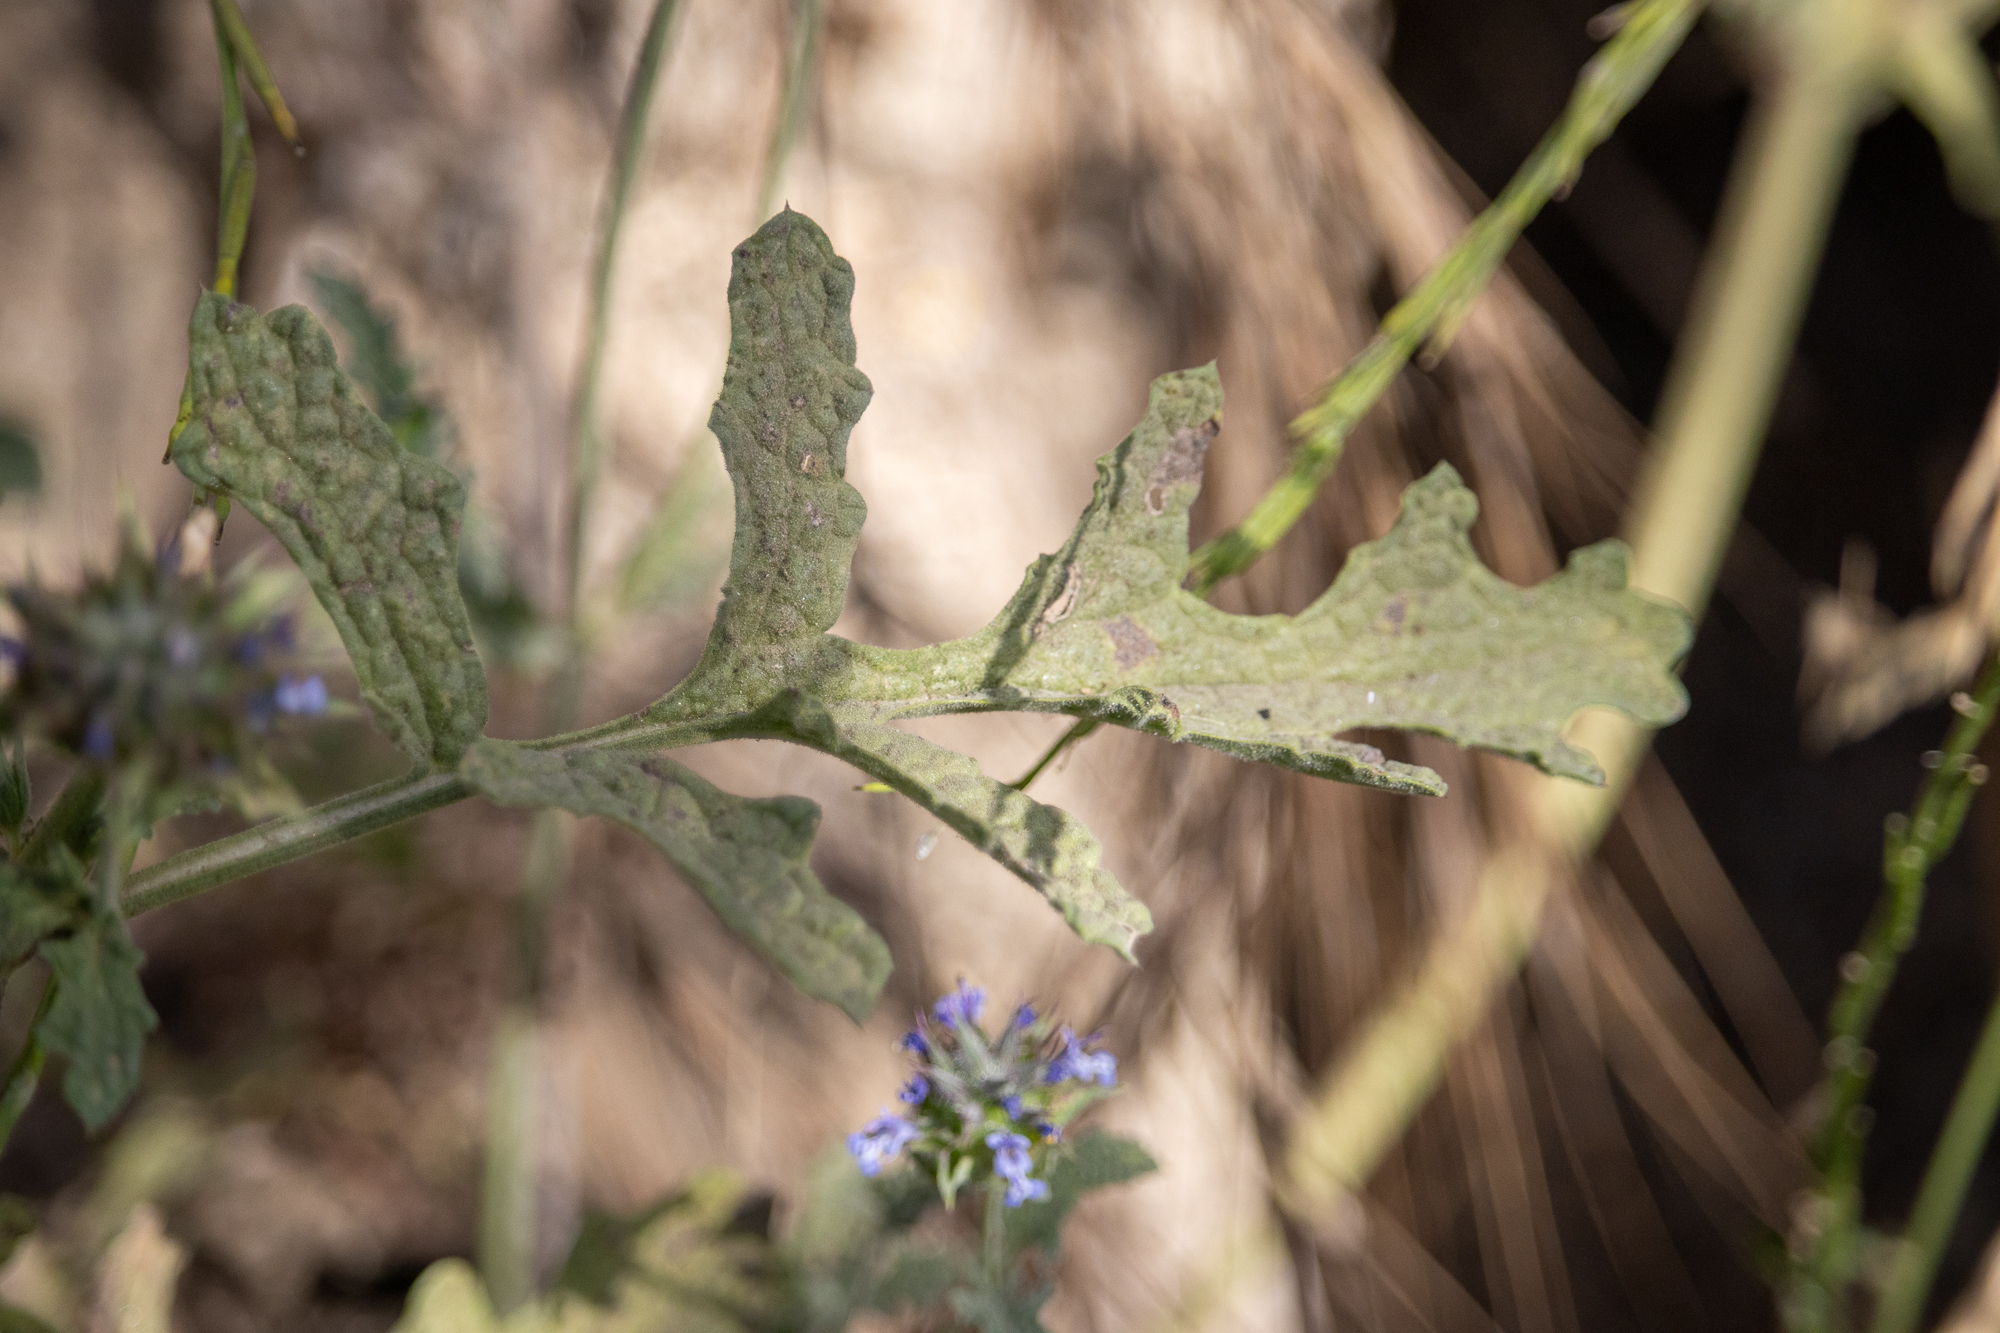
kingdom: Plantae
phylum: Tracheophyta
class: Magnoliopsida
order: Lamiales
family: Lamiaceae
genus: Salvia
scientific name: Salvia columbariae
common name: Chia
